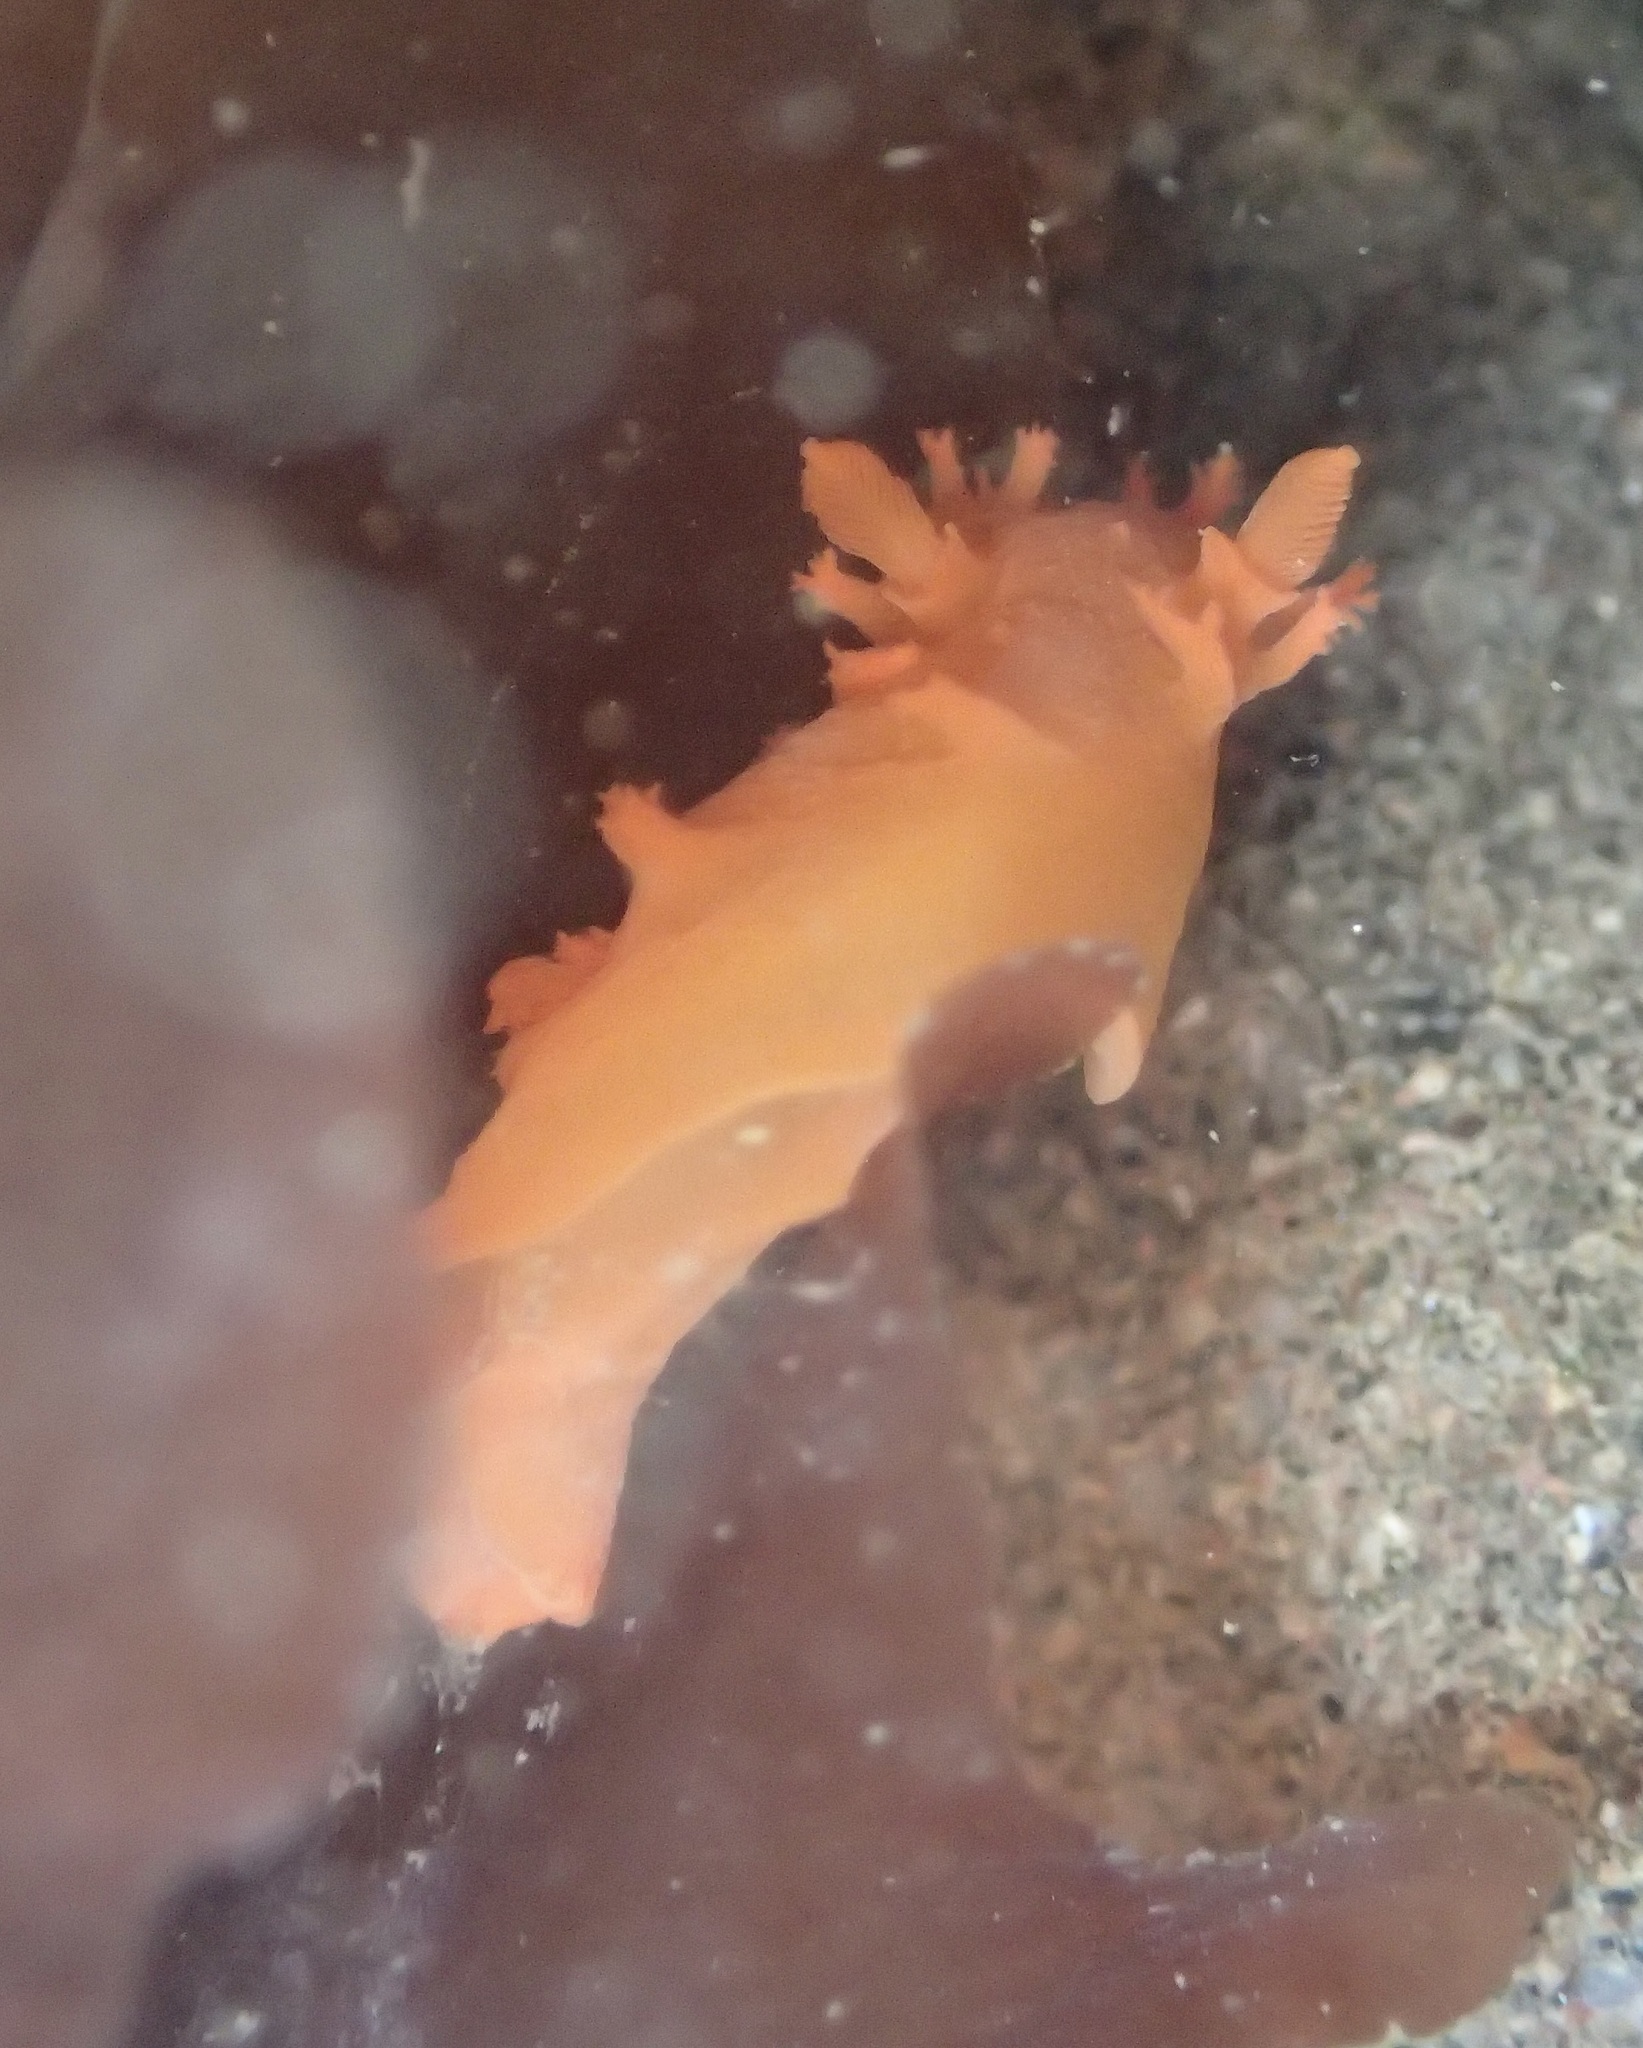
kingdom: Animalia
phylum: Mollusca
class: Gastropoda
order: Nudibranchia
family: Polyceridae
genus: Triopha
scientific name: Triopha maculata
